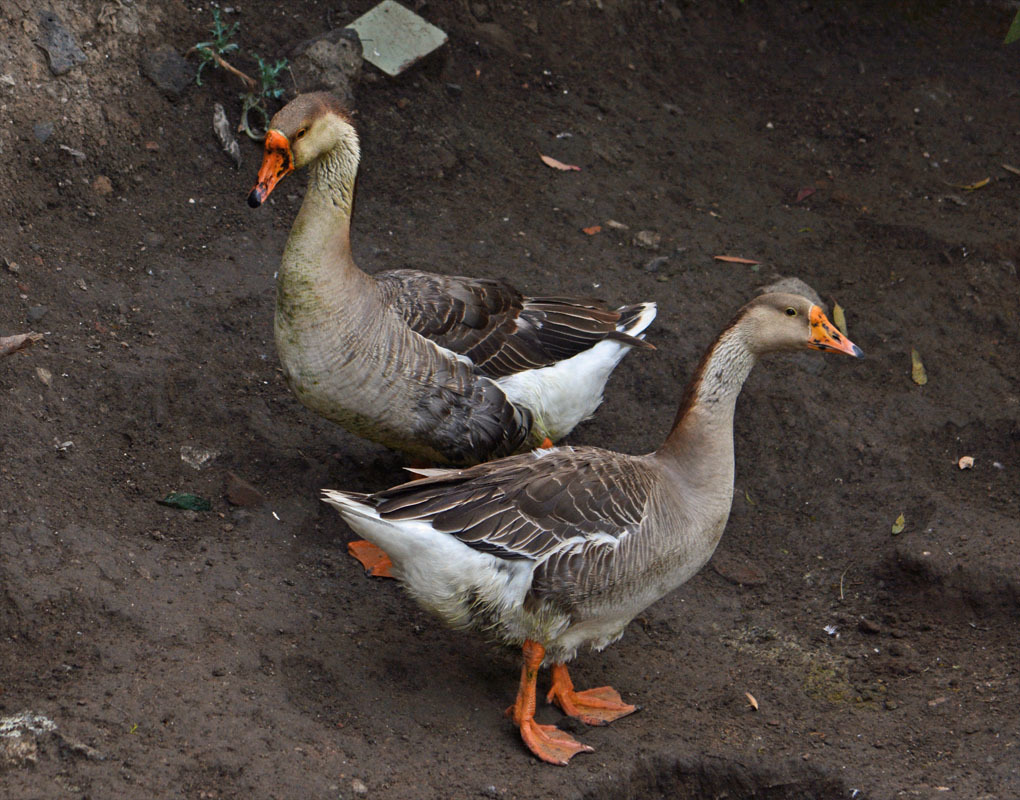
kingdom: Animalia
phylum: Chordata
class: Aves
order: Anseriformes
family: Anatidae
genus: Anser
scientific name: Anser cygnoides
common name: Swan goose
